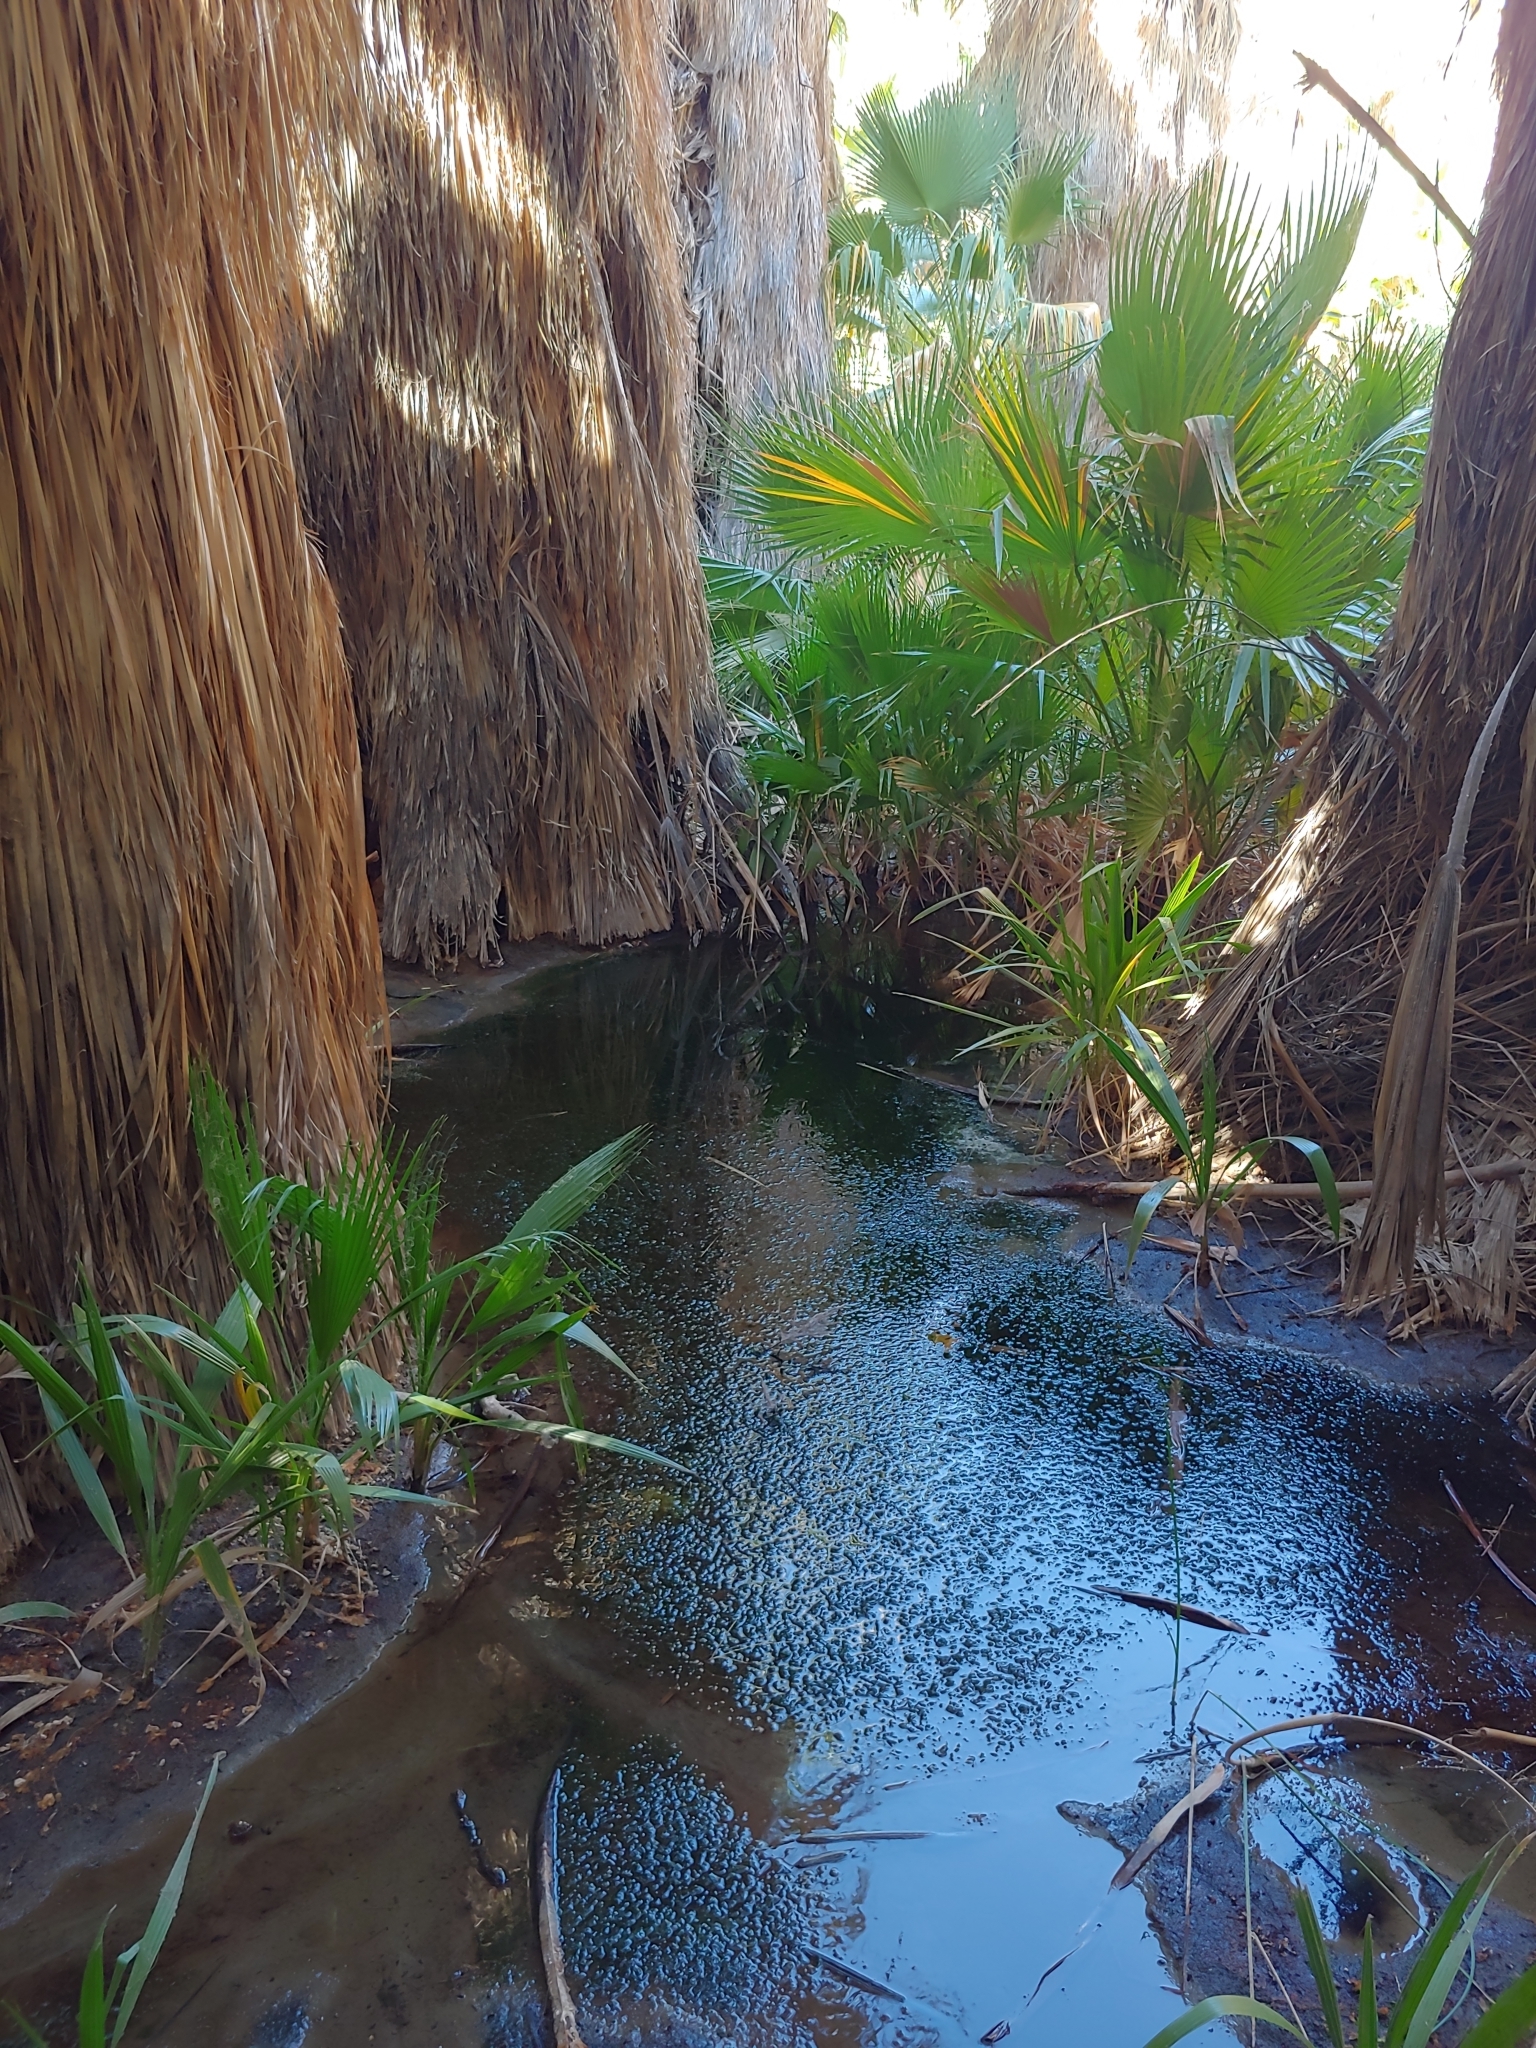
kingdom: Plantae
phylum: Tracheophyta
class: Liliopsida
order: Arecales
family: Arecaceae
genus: Washingtonia
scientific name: Washingtonia filifera
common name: California fan palm
